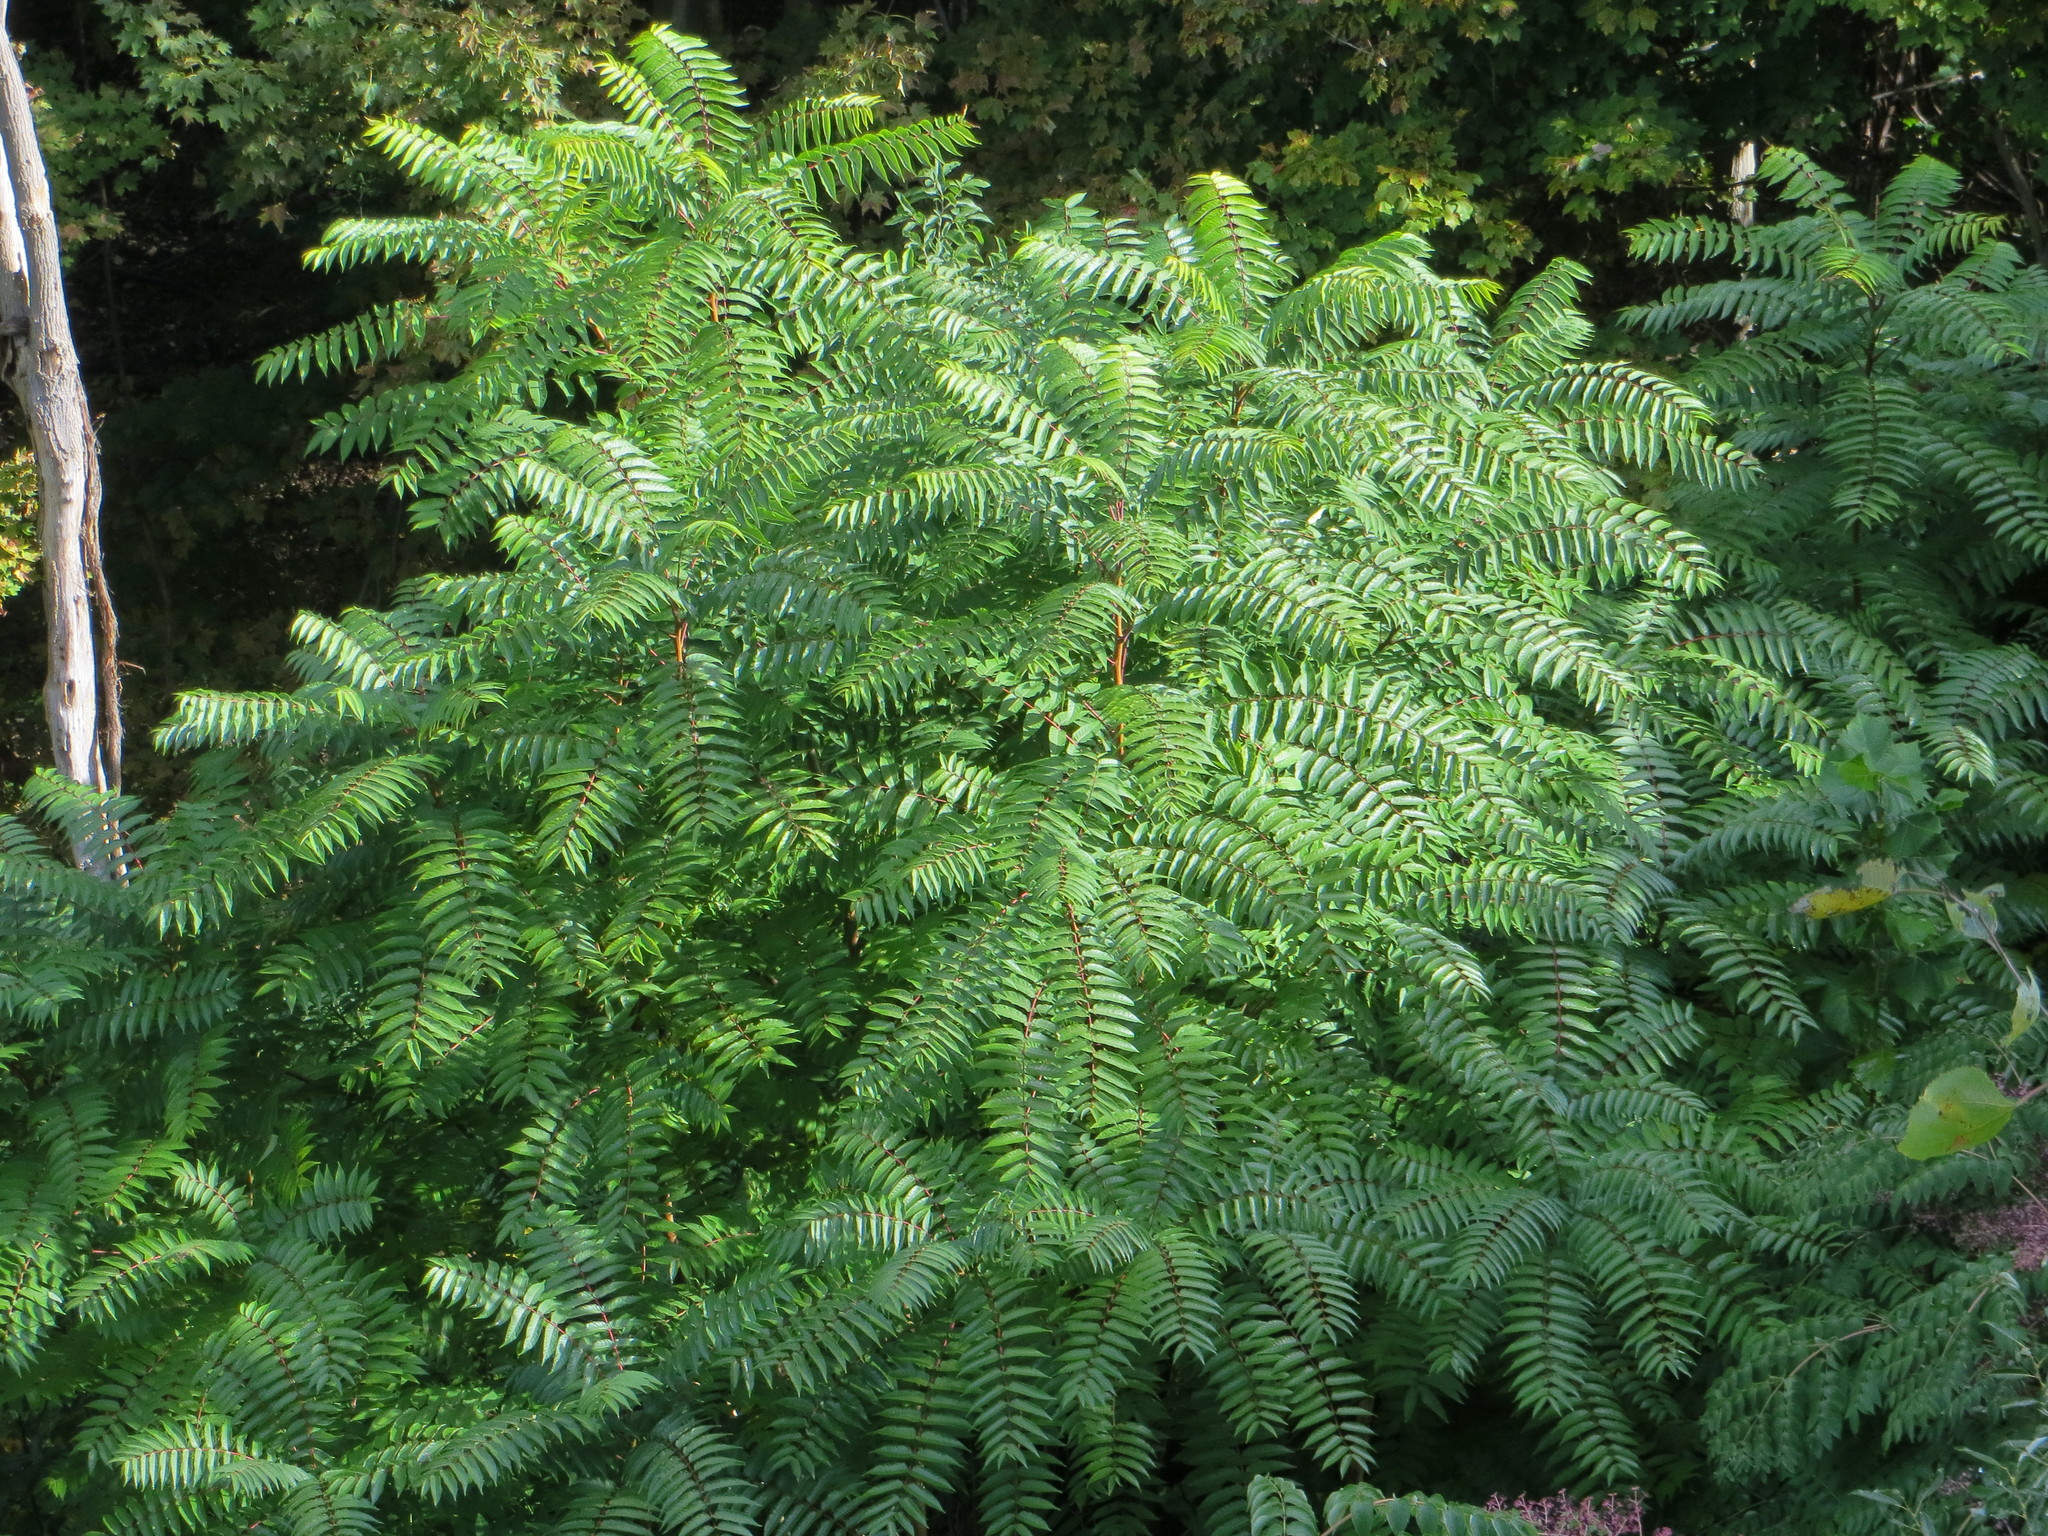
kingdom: Plantae
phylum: Tracheophyta
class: Magnoliopsida
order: Sapindales
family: Simaroubaceae
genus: Ailanthus
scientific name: Ailanthus altissima
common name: Tree-of-heaven
